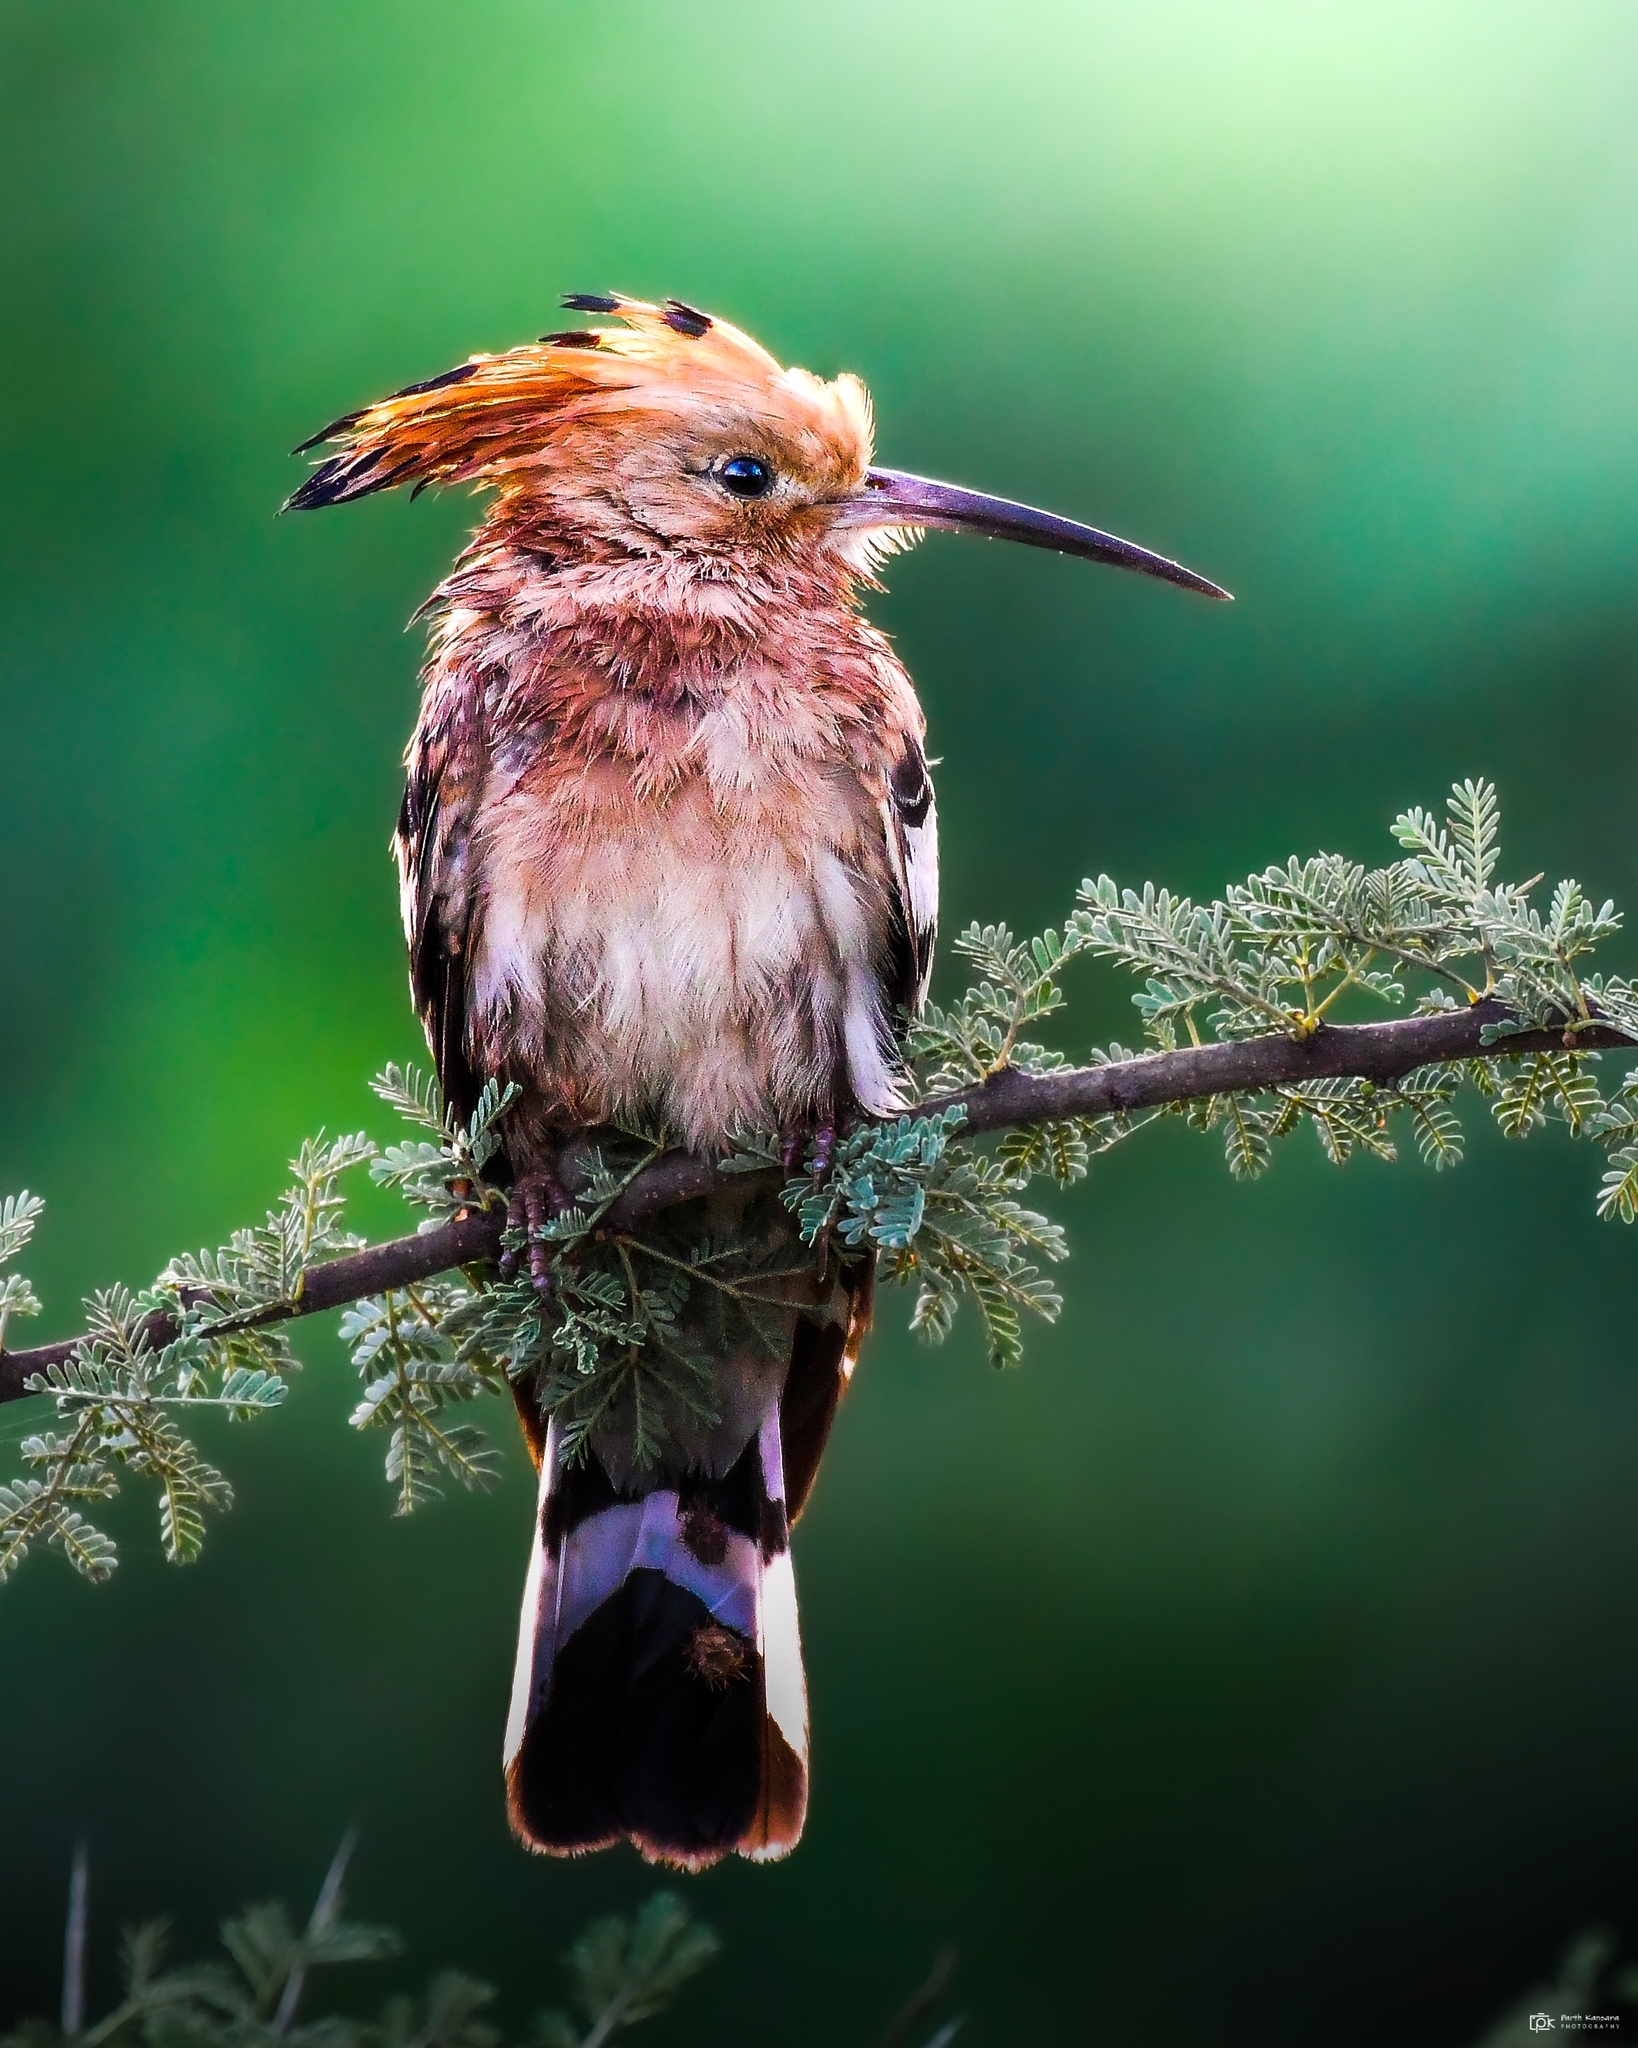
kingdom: Animalia
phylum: Chordata
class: Aves
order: Bucerotiformes
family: Upupidae
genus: Upupa
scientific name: Upupa epops
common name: Eurasian hoopoe
